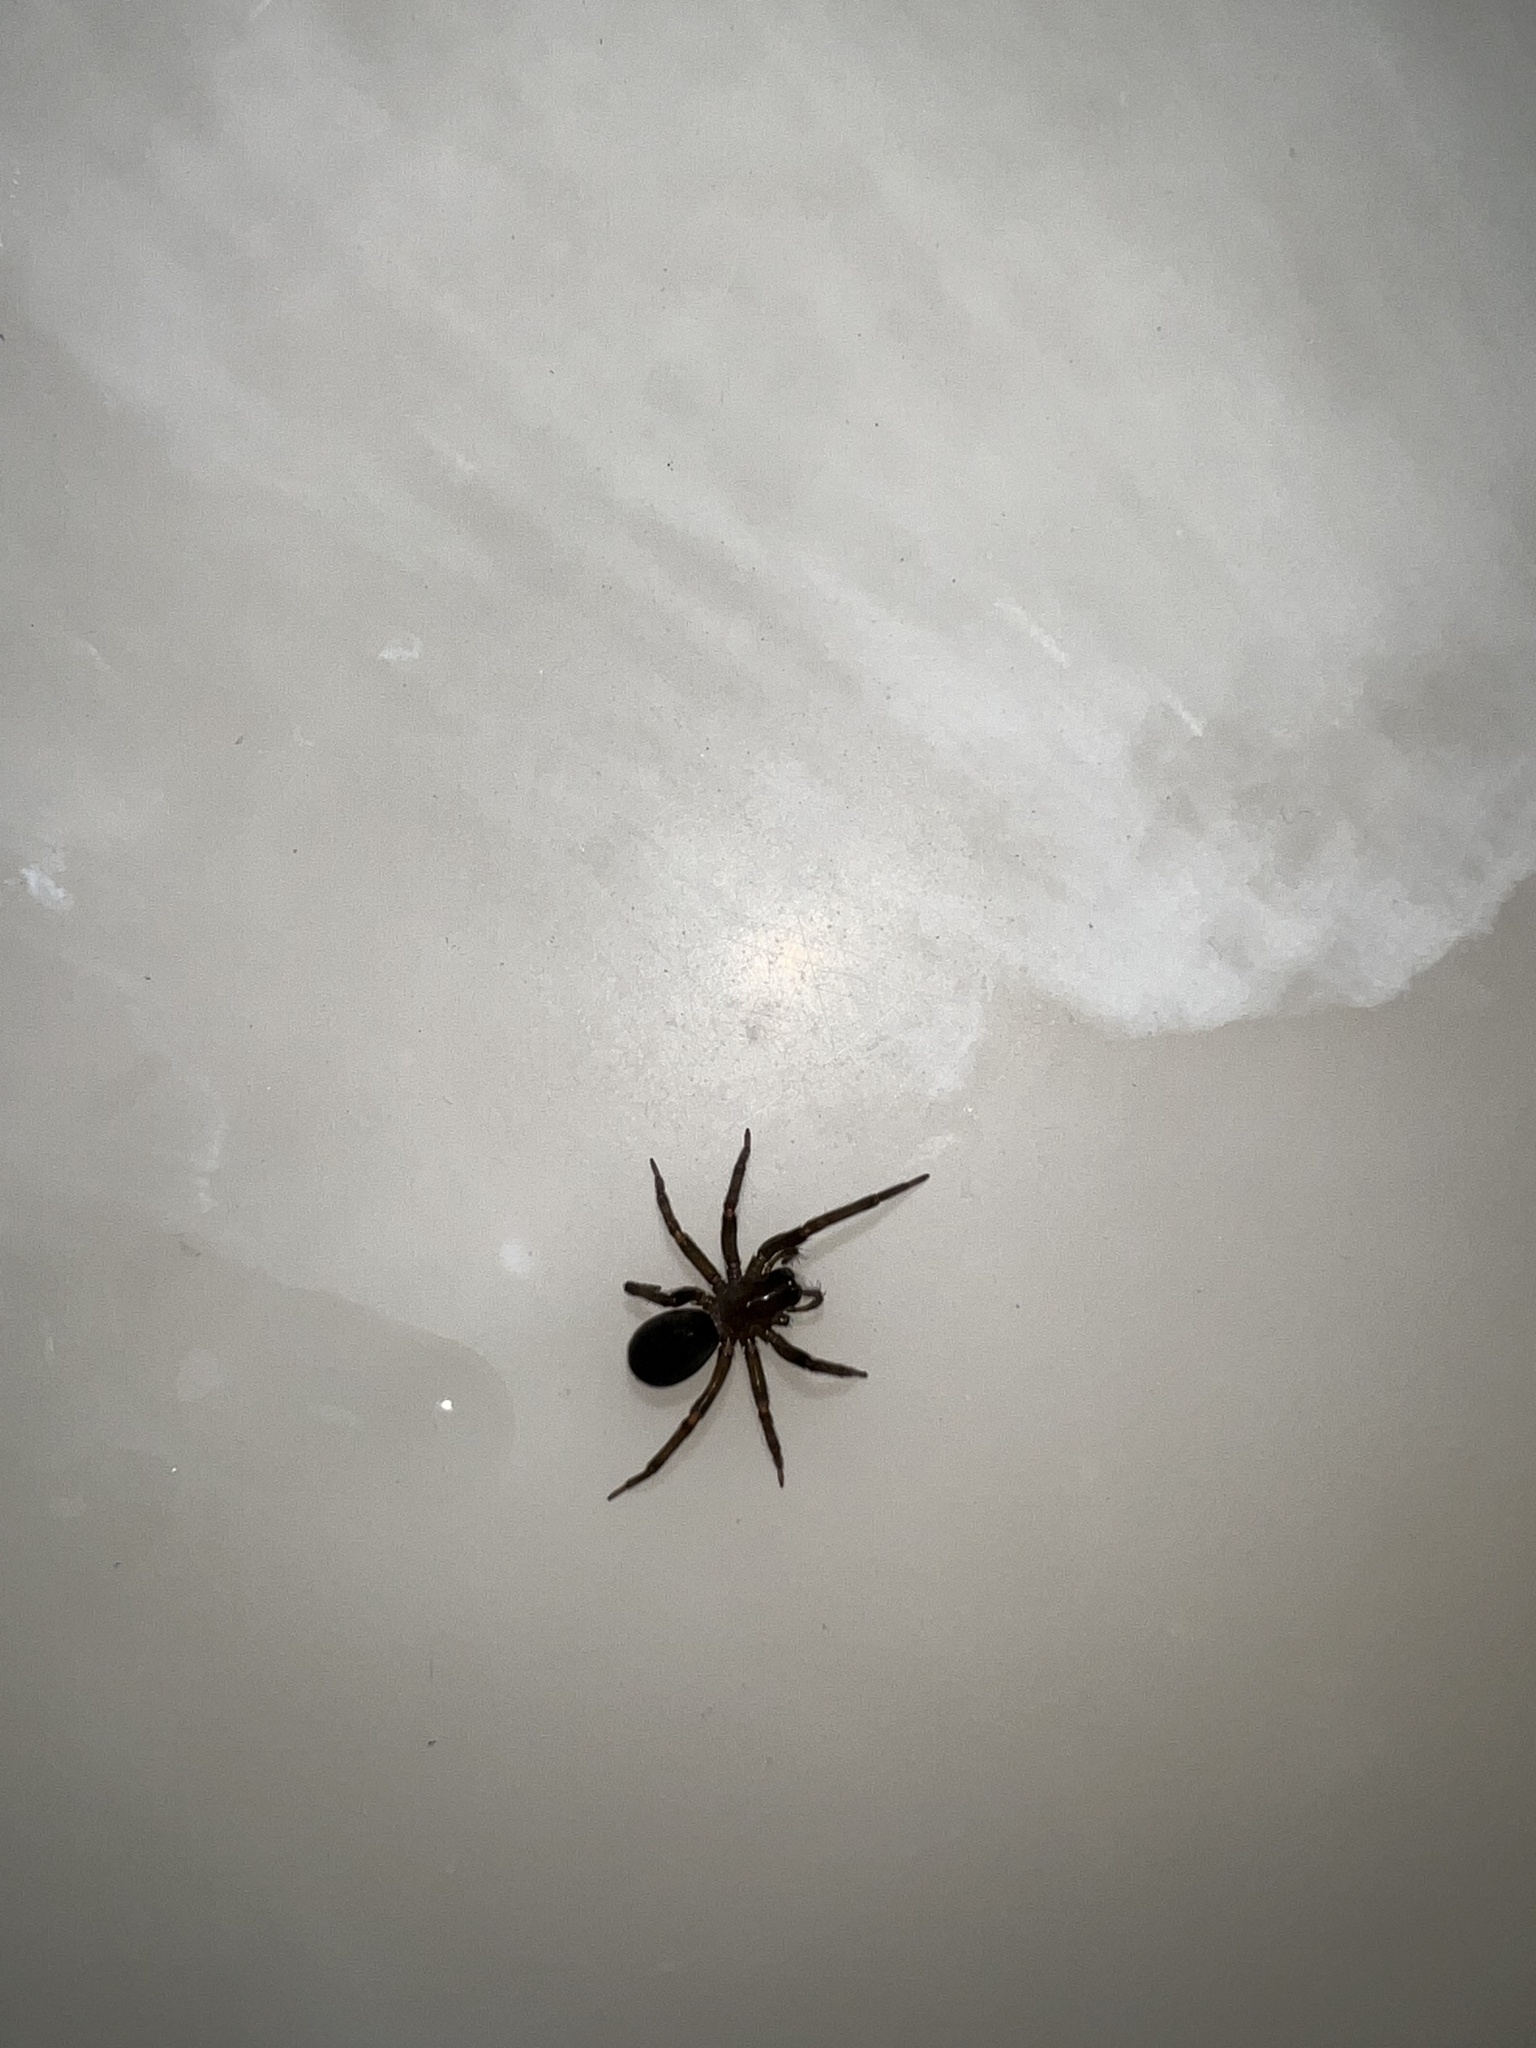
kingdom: Animalia
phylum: Arthropoda
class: Arachnida
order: Araneae
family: Desidae
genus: Metaltella
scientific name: Metaltella simoni
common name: Cribellate spider
